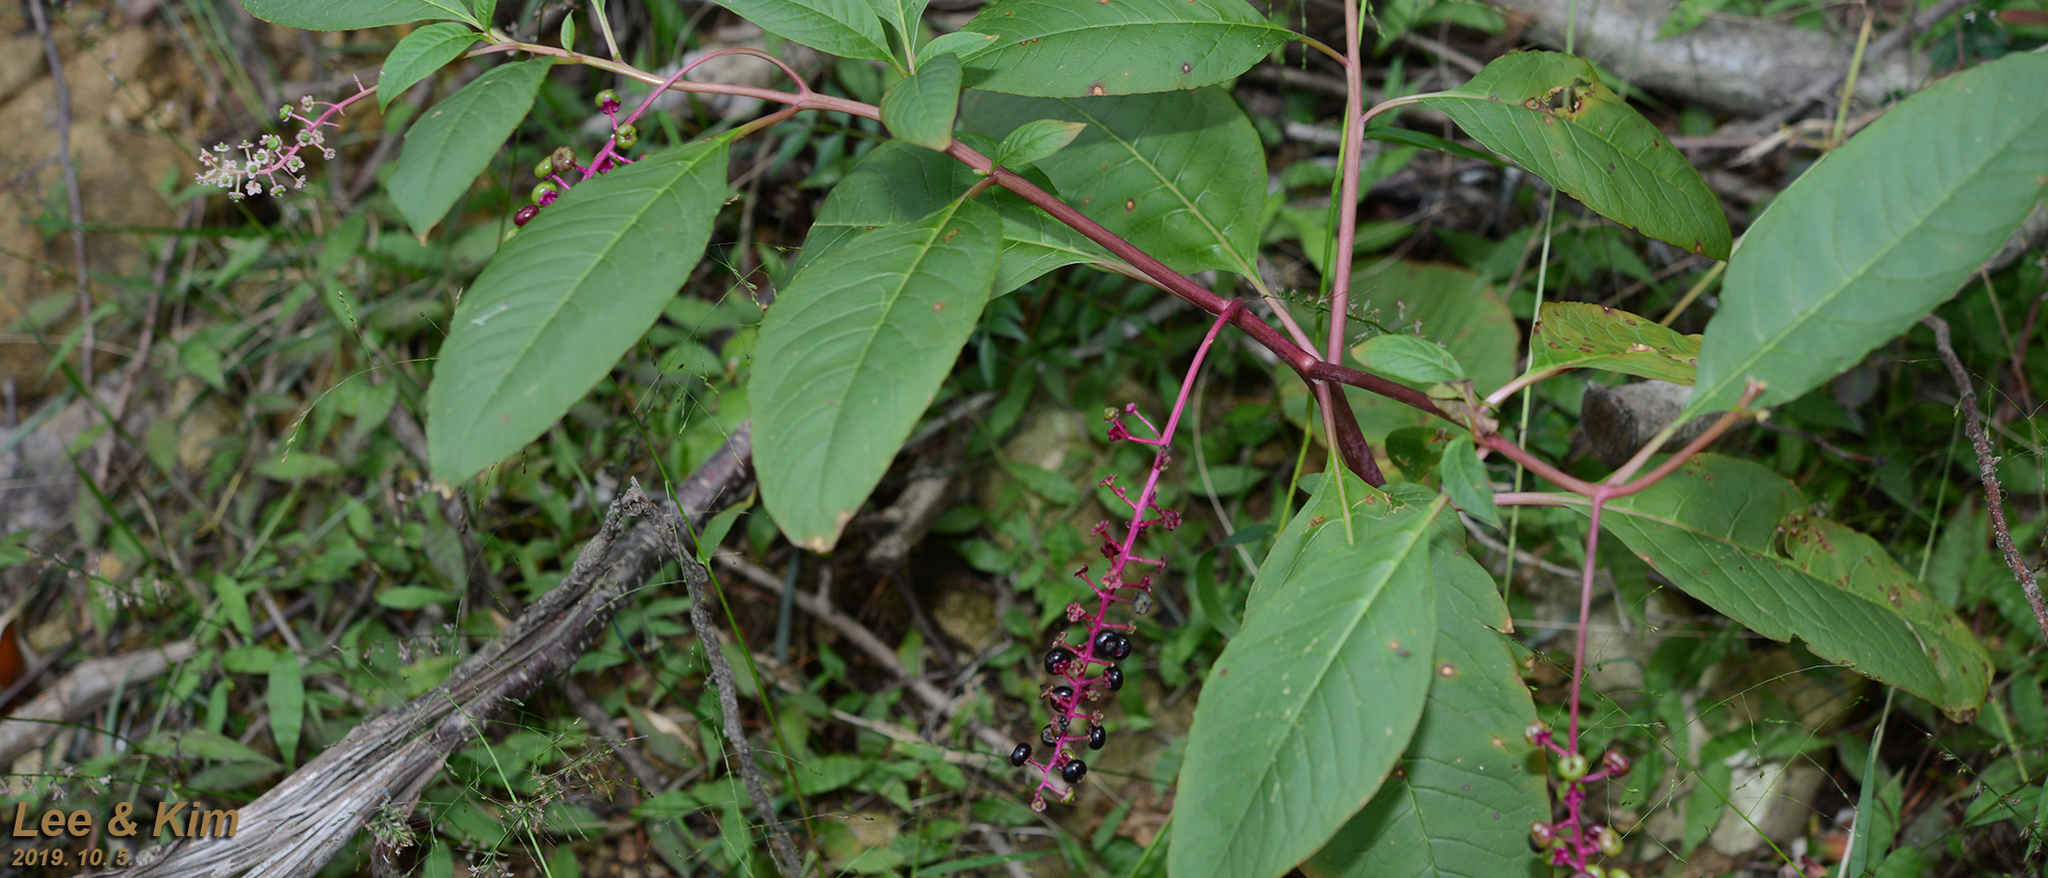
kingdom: Plantae
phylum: Tracheophyta
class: Magnoliopsida
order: Caryophyllales
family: Phytolaccaceae
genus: Phytolacca
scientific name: Phytolacca americana
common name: American pokeweed
